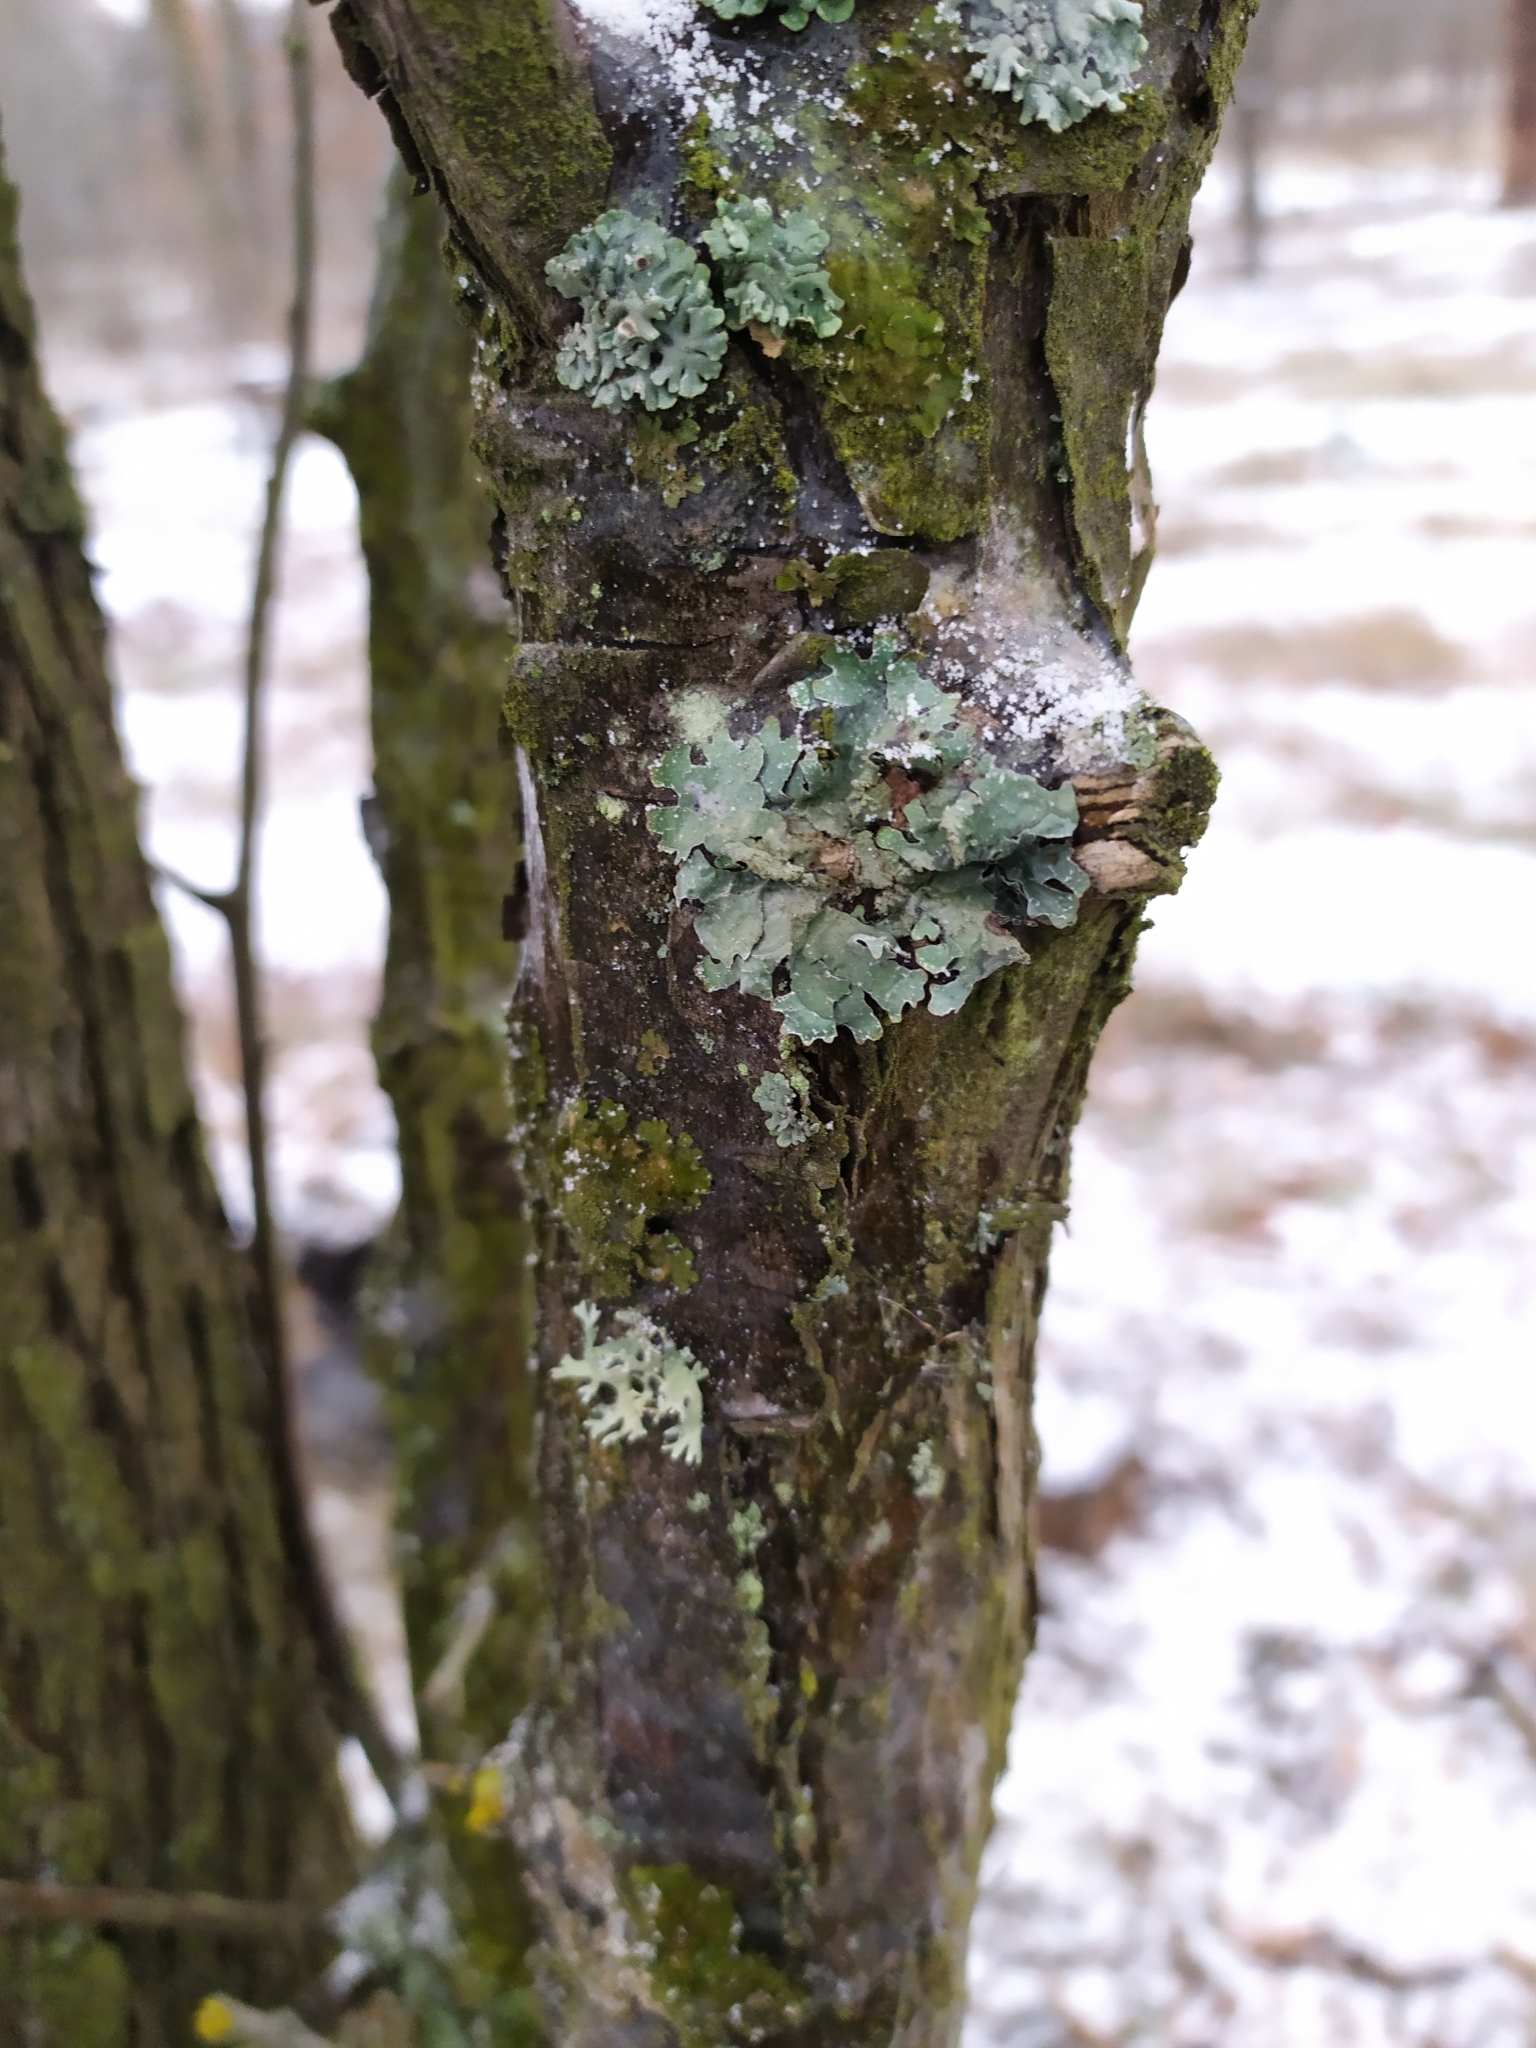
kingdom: Fungi
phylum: Ascomycota
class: Lecanoromycetes
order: Lecanorales
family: Parmeliaceae
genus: Parmelia
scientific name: Parmelia sulcata
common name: Netted shield lichen
